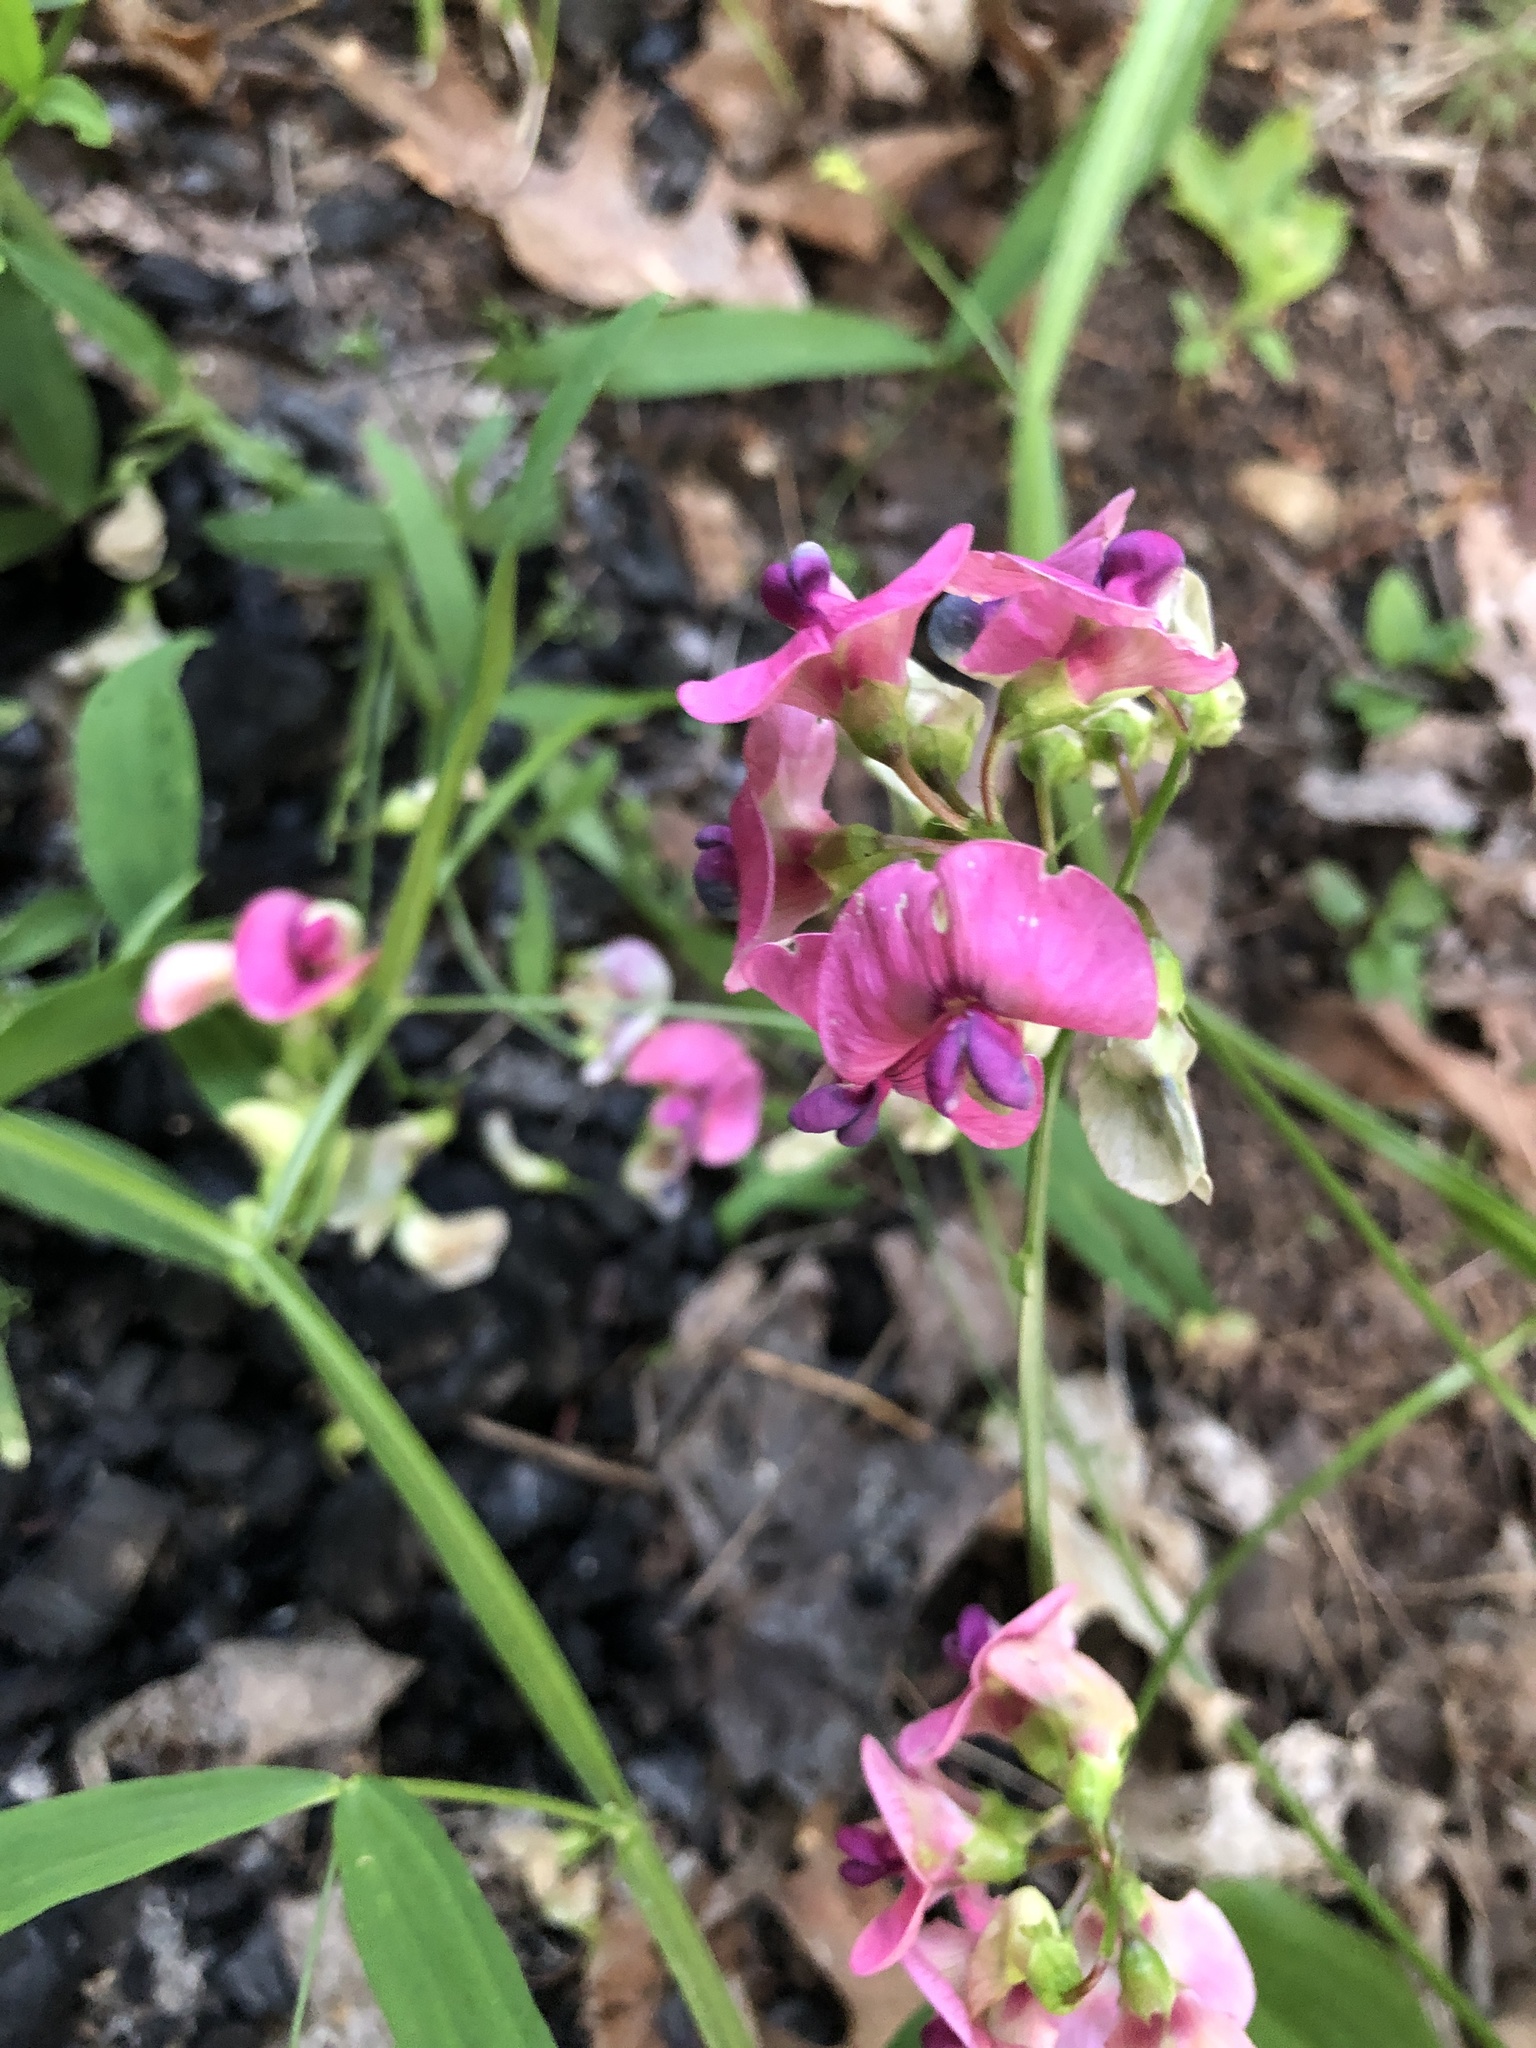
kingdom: Plantae
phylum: Tracheophyta
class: Magnoliopsida
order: Fabales
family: Fabaceae
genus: Lathyrus
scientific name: Lathyrus sylvestris
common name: Flat pea
